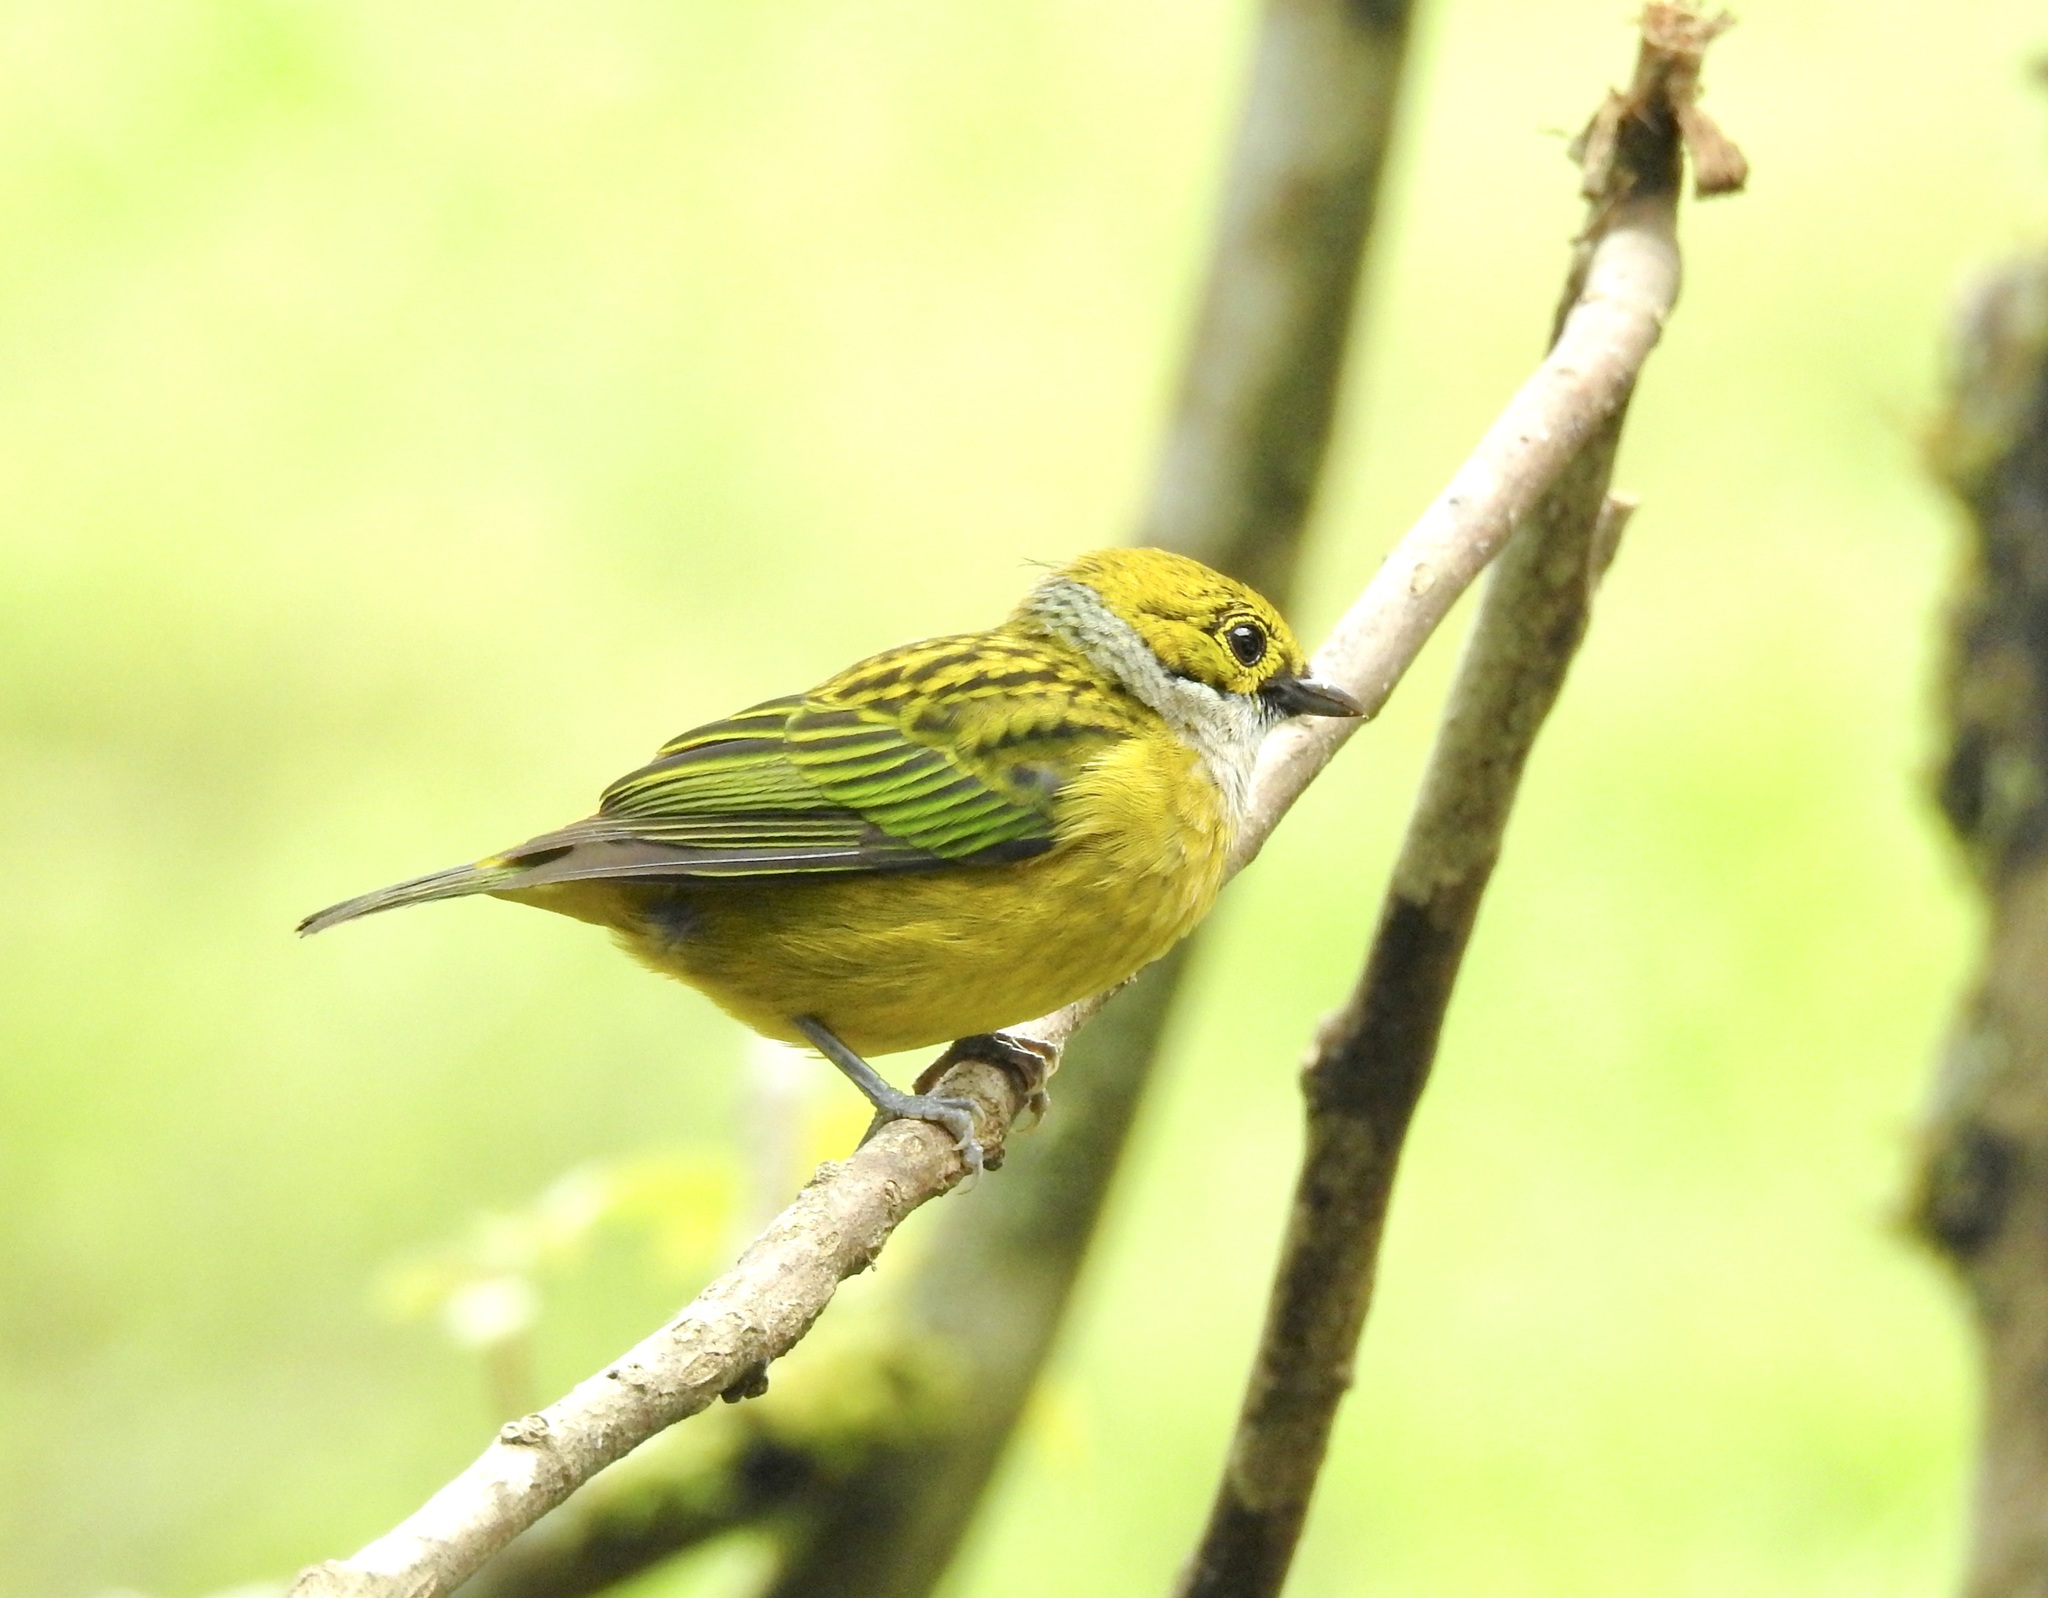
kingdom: Animalia
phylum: Chordata
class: Aves
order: Passeriformes
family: Thraupidae
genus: Tangara
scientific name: Tangara icterocephala
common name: Silver-throated tanager
